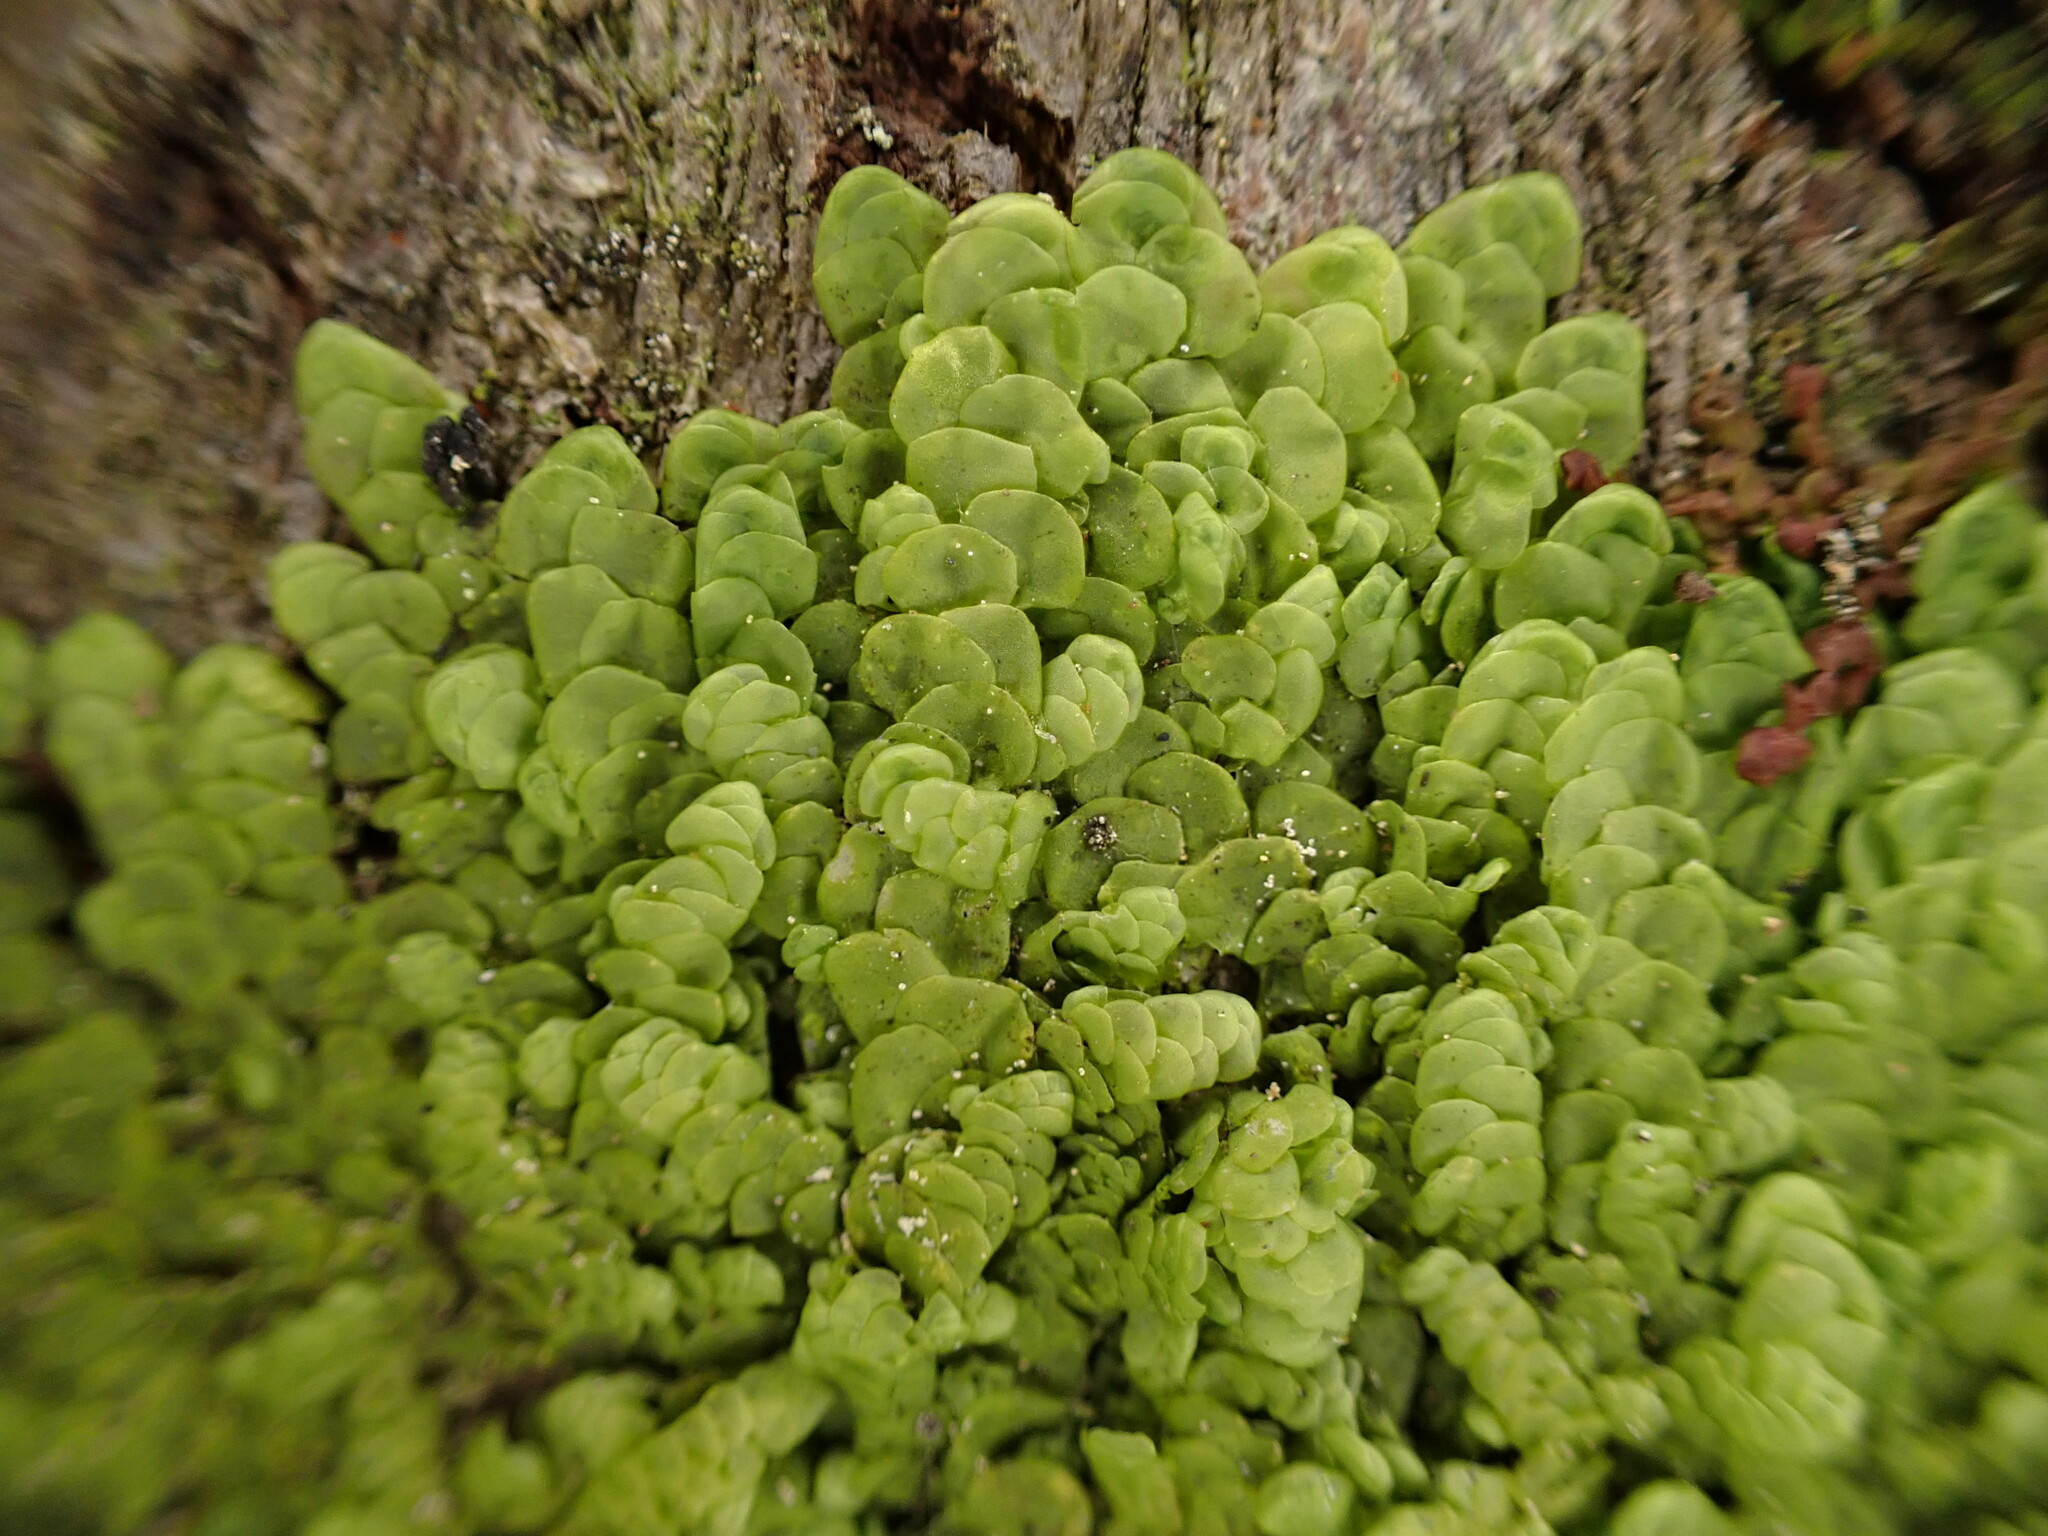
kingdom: Plantae
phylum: Marchantiophyta
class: Jungermanniopsida
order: Porellales
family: Radulaceae
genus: Radula
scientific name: Radula complanata
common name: Flat-leaved scalewort
